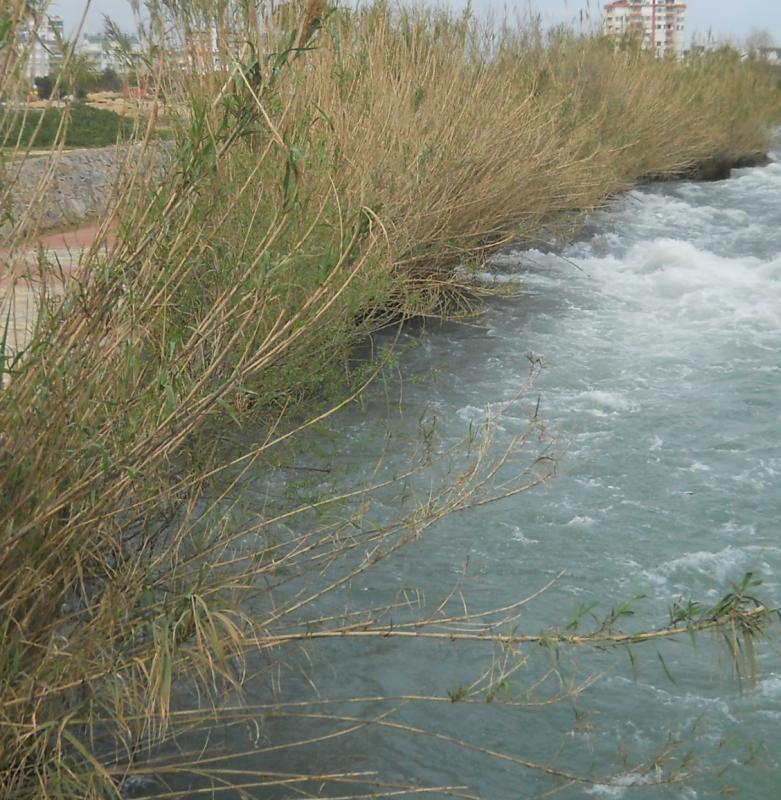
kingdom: Plantae
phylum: Tracheophyta
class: Liliopsida
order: Poales
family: Poaceae
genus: Arundo
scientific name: Arundo donax
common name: Giant reed
